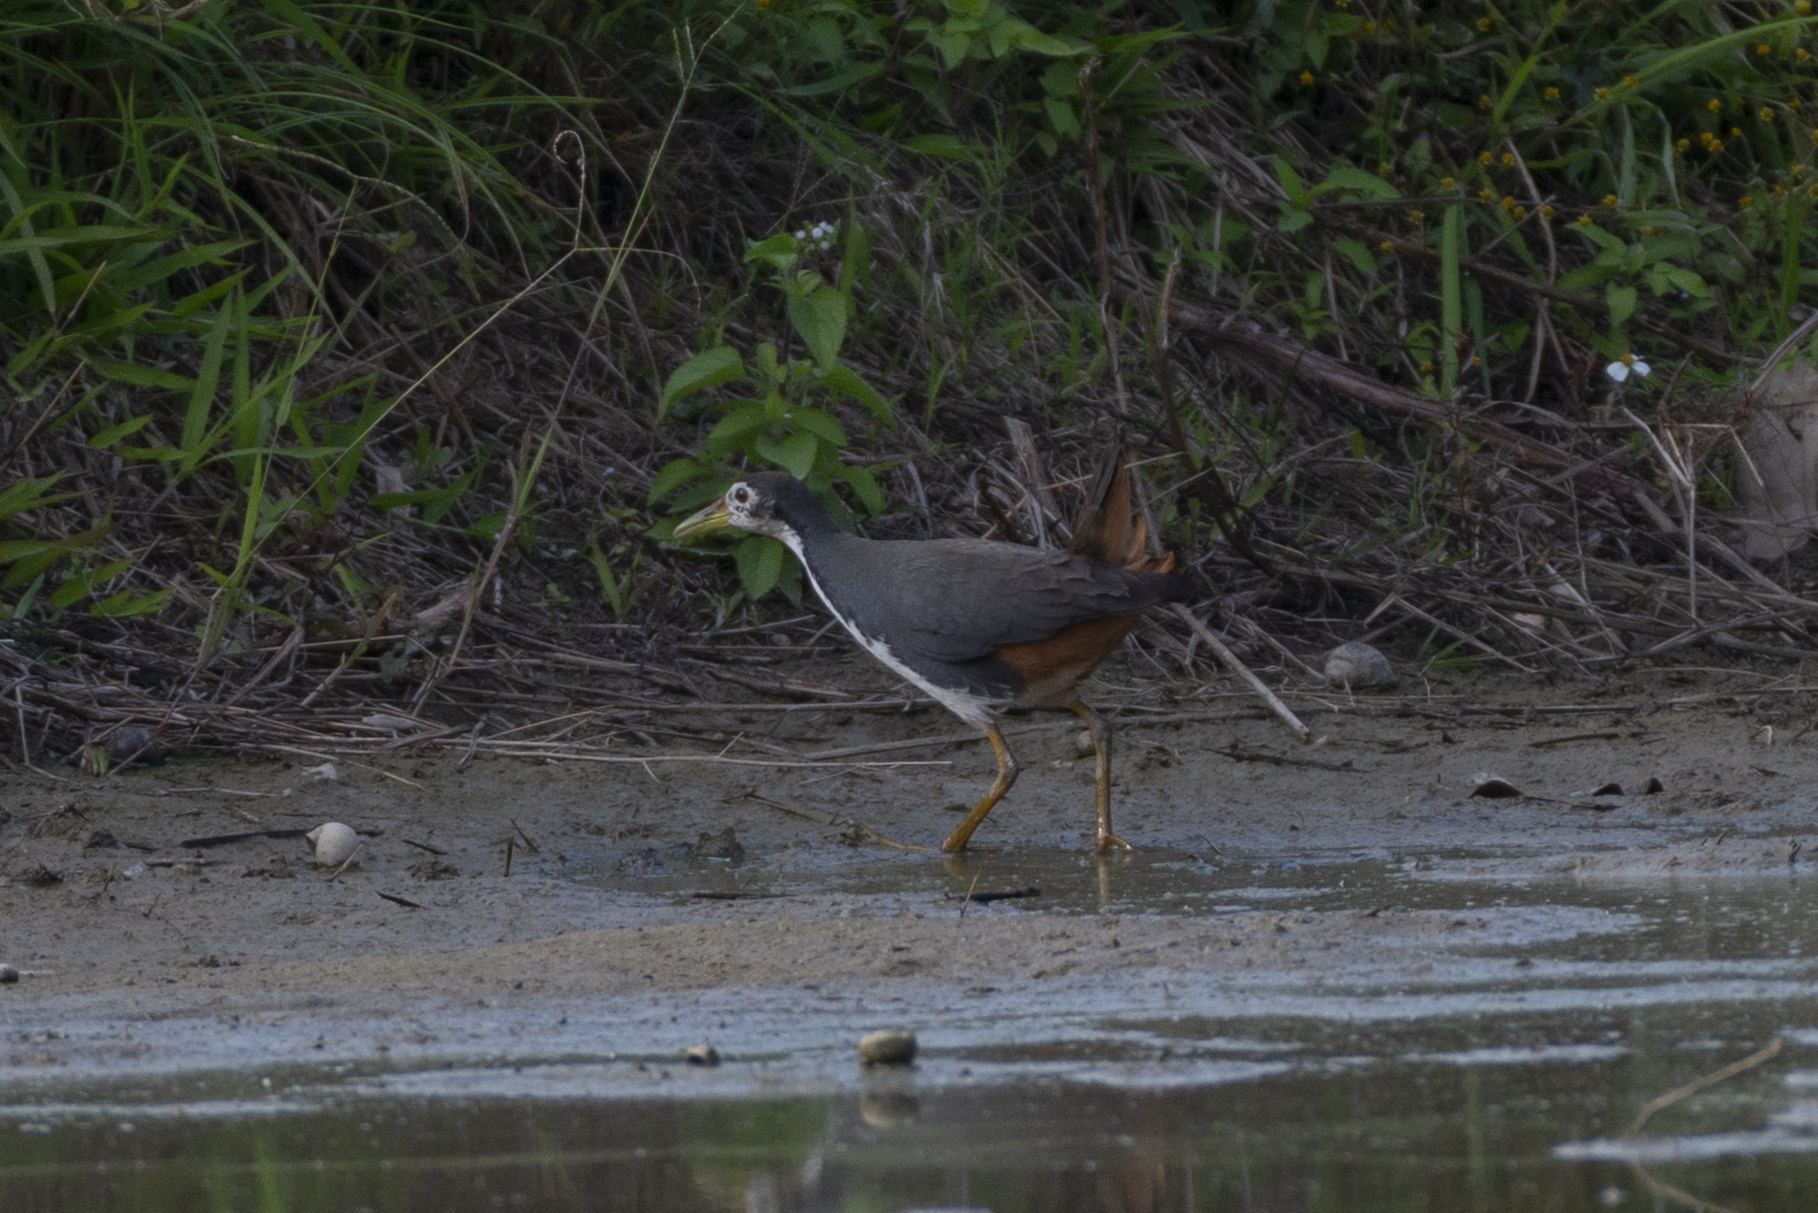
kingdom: Animalia
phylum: Chordata
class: Aves
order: Gruiformes
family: Rallidae
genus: Amaurornis
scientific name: Amaurornis phoenicurus
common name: White-breasted waterhen
